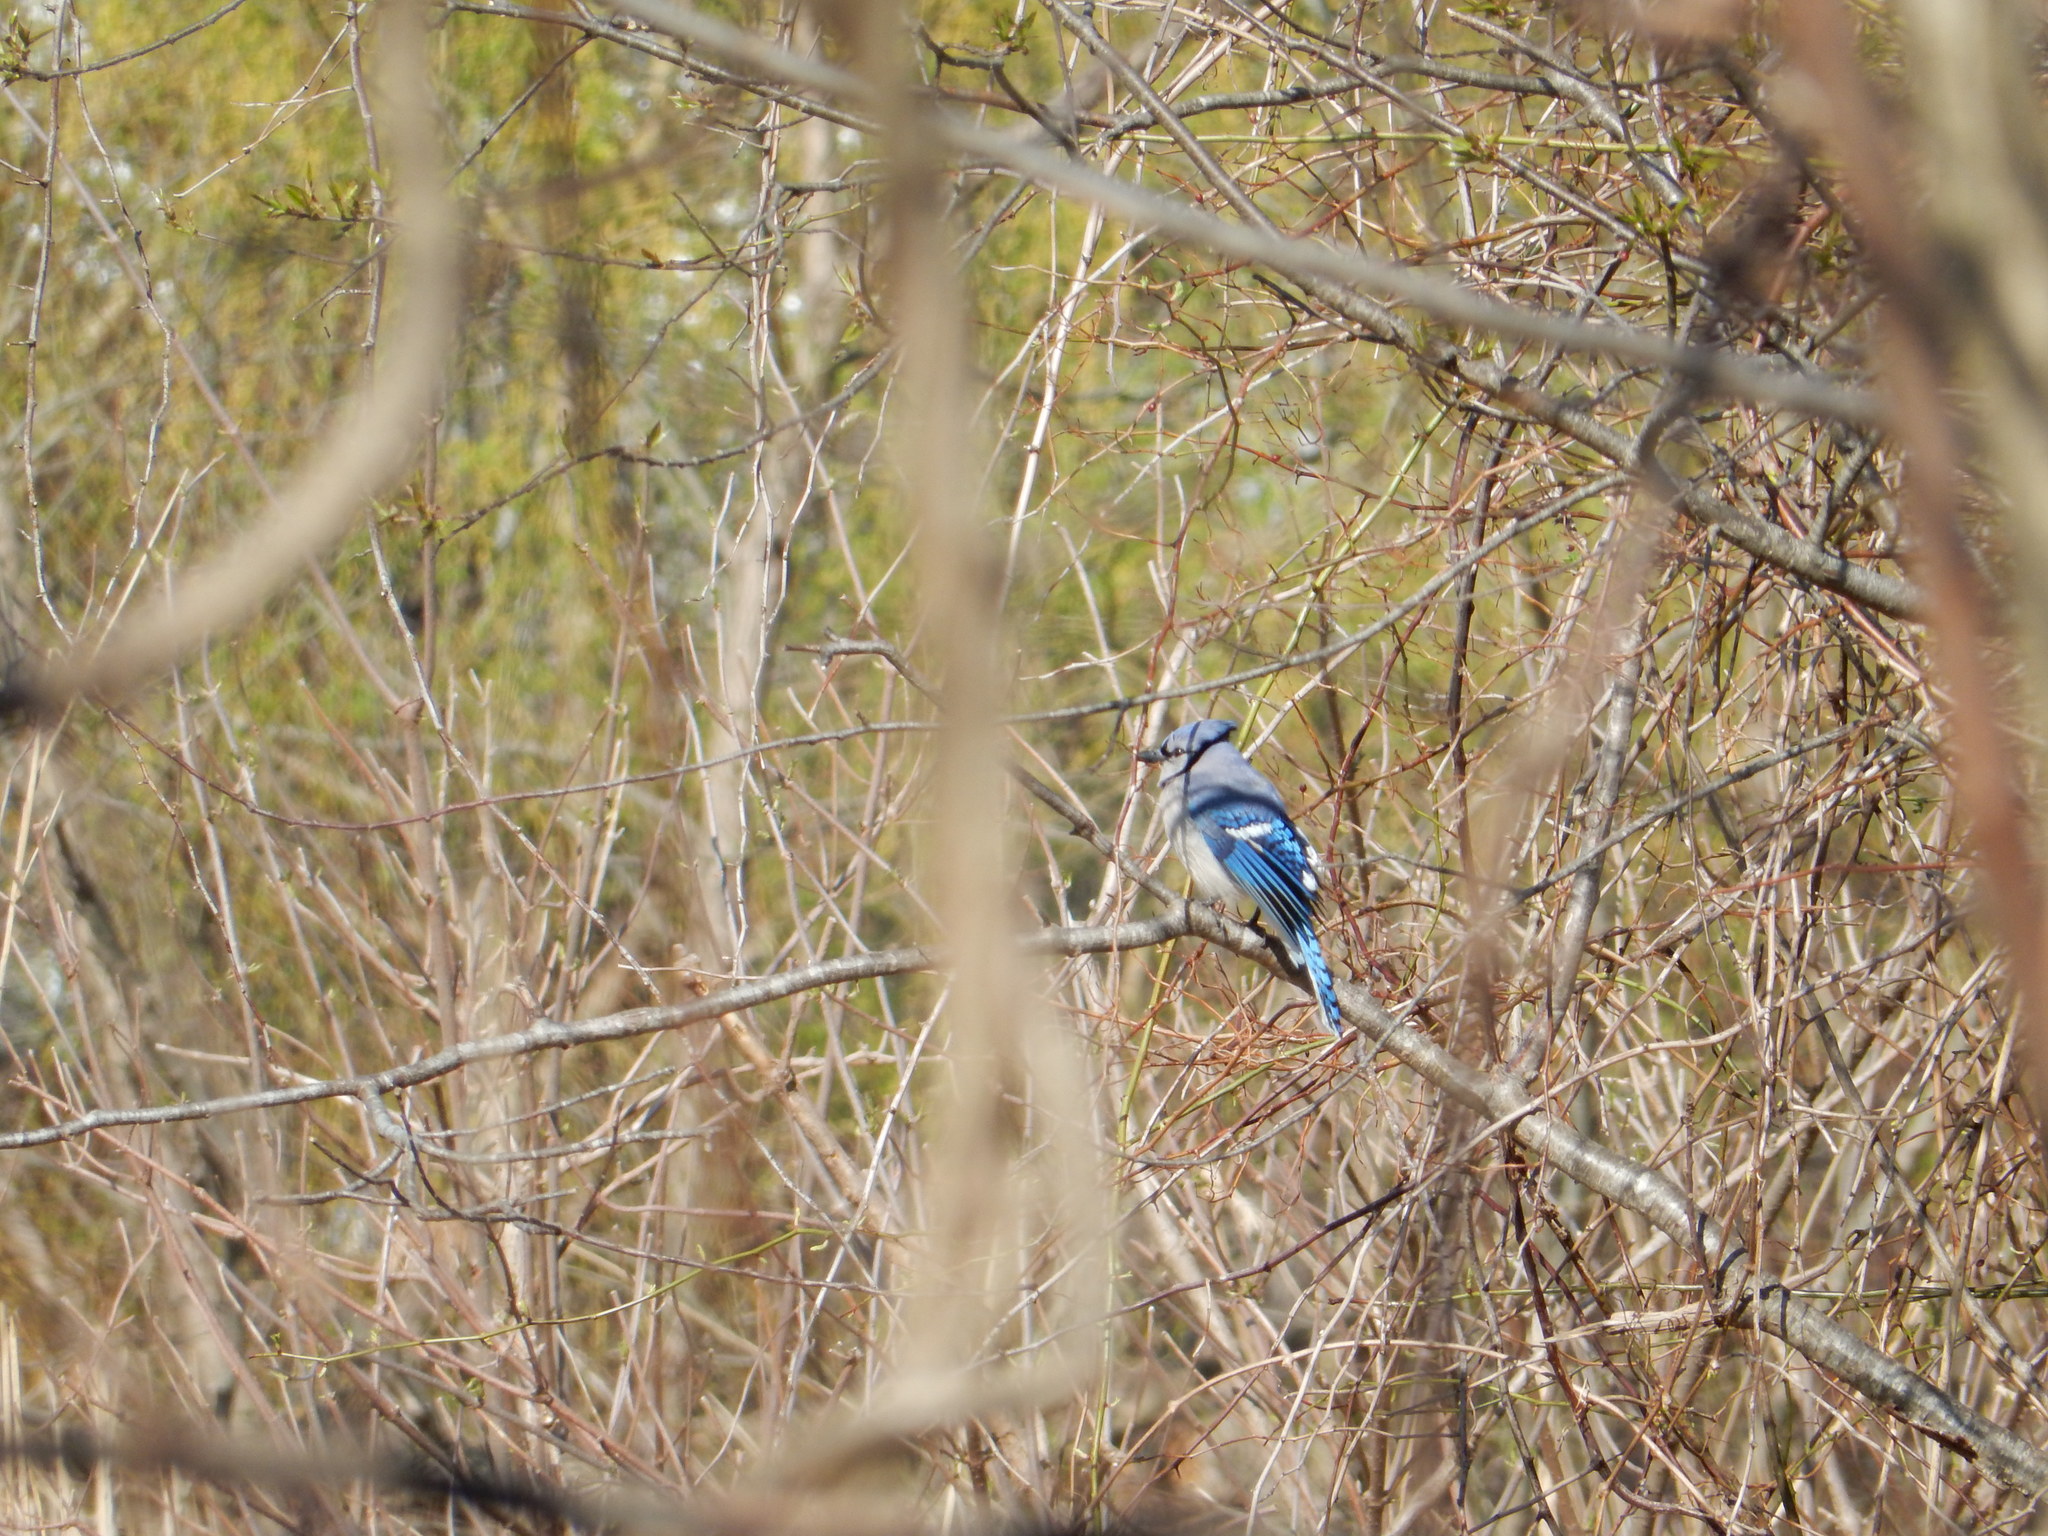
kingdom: Animalia
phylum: Chordata
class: Aves
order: Passeriformes
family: Corvidae
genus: Cyanocitta
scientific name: Cyanocitta cristata
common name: Blue jay
